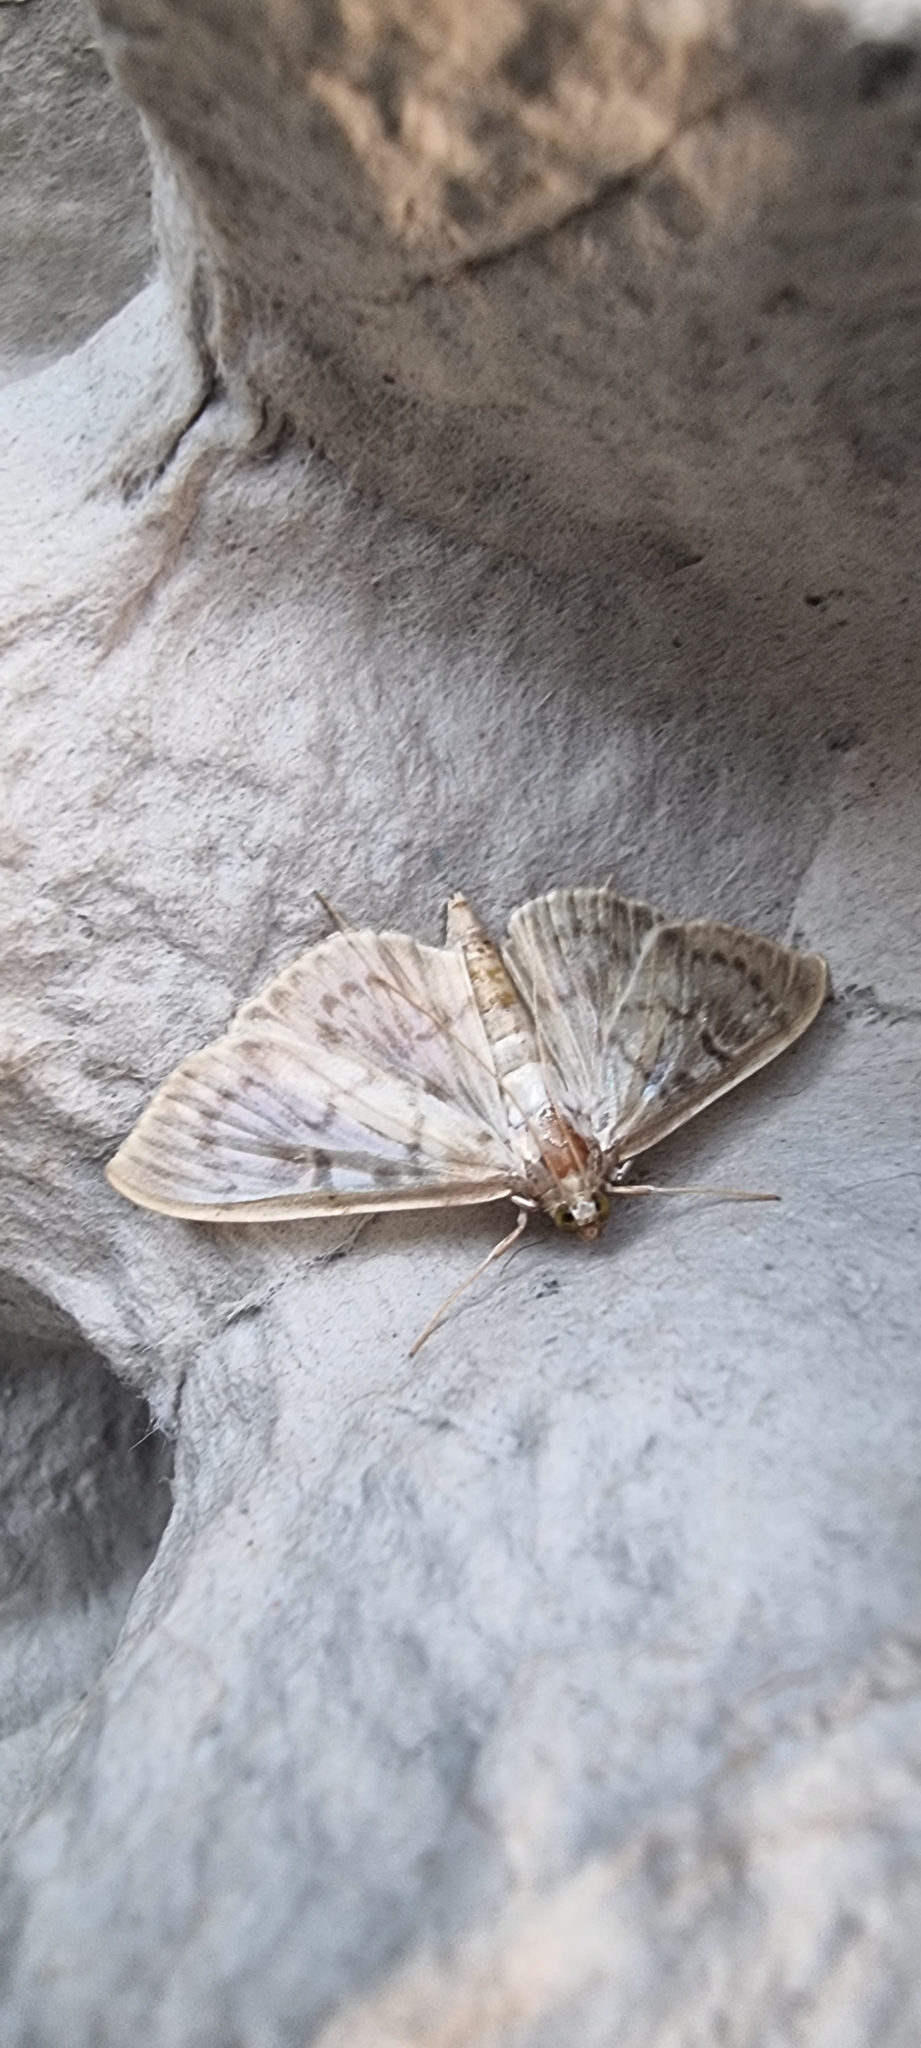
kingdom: Animalia
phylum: Arthropoda
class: Insecta
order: Lepidoptera
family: Crambidae
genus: Patania
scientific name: Patania ruralis
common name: Mother of pearl
